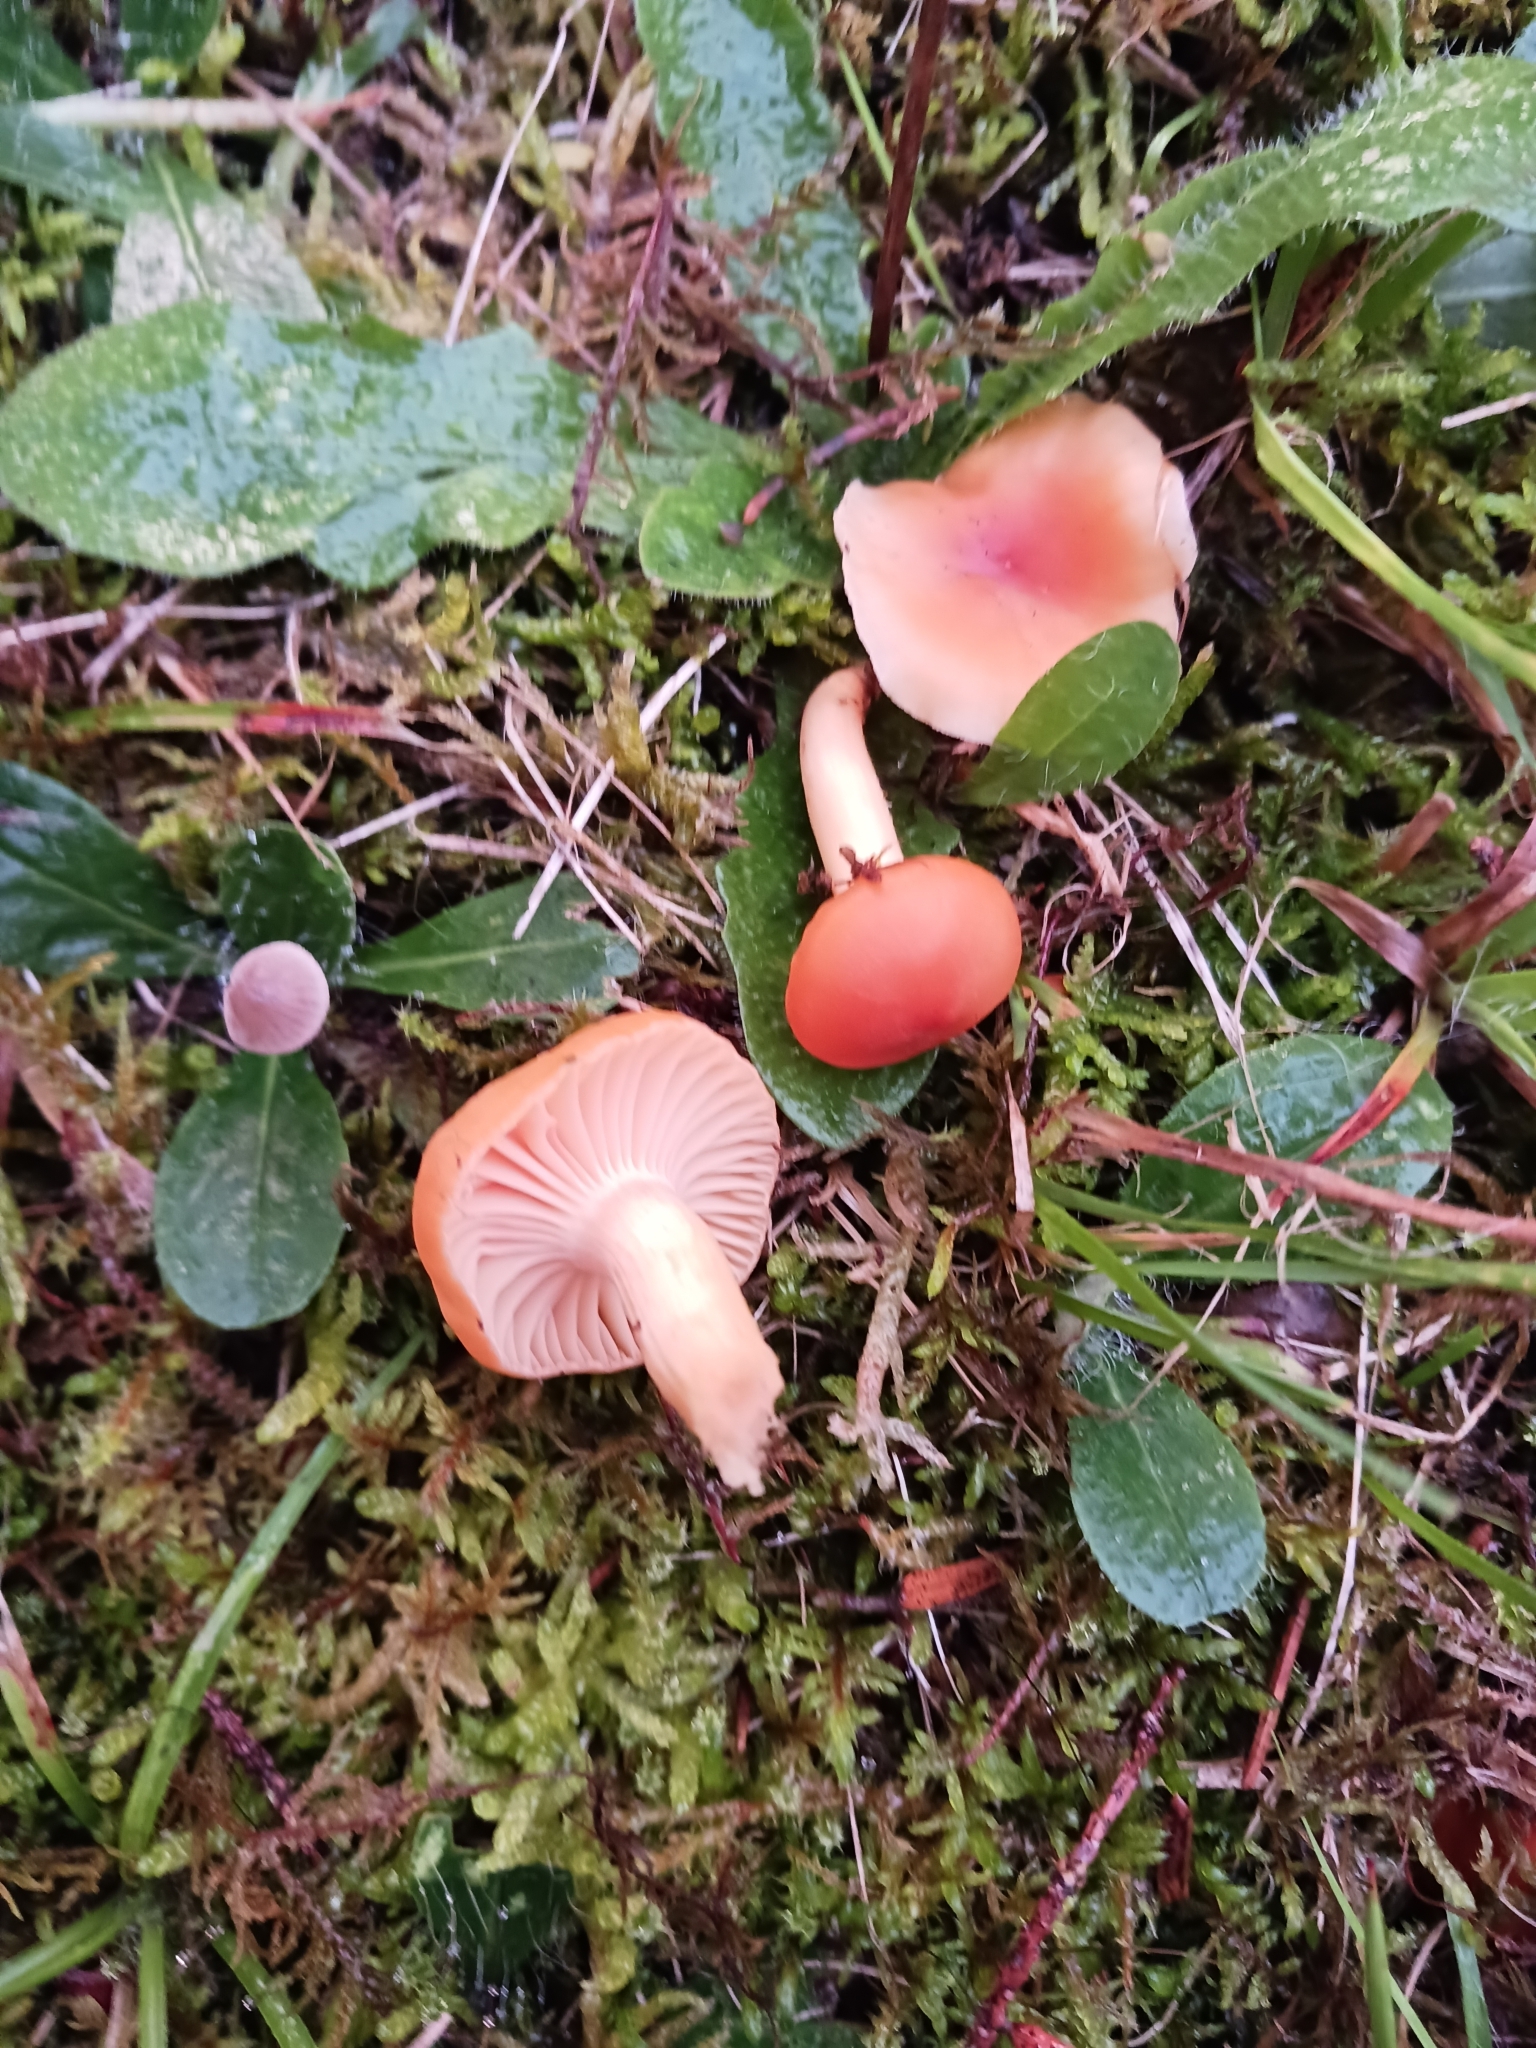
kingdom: Fungi
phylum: Basidiomycota
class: Agaricomycetes
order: Agaricales
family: Hygrophoraceae
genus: Cuphophyllus
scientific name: Cuphophyllus pratensis
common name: Meadow waxcap
